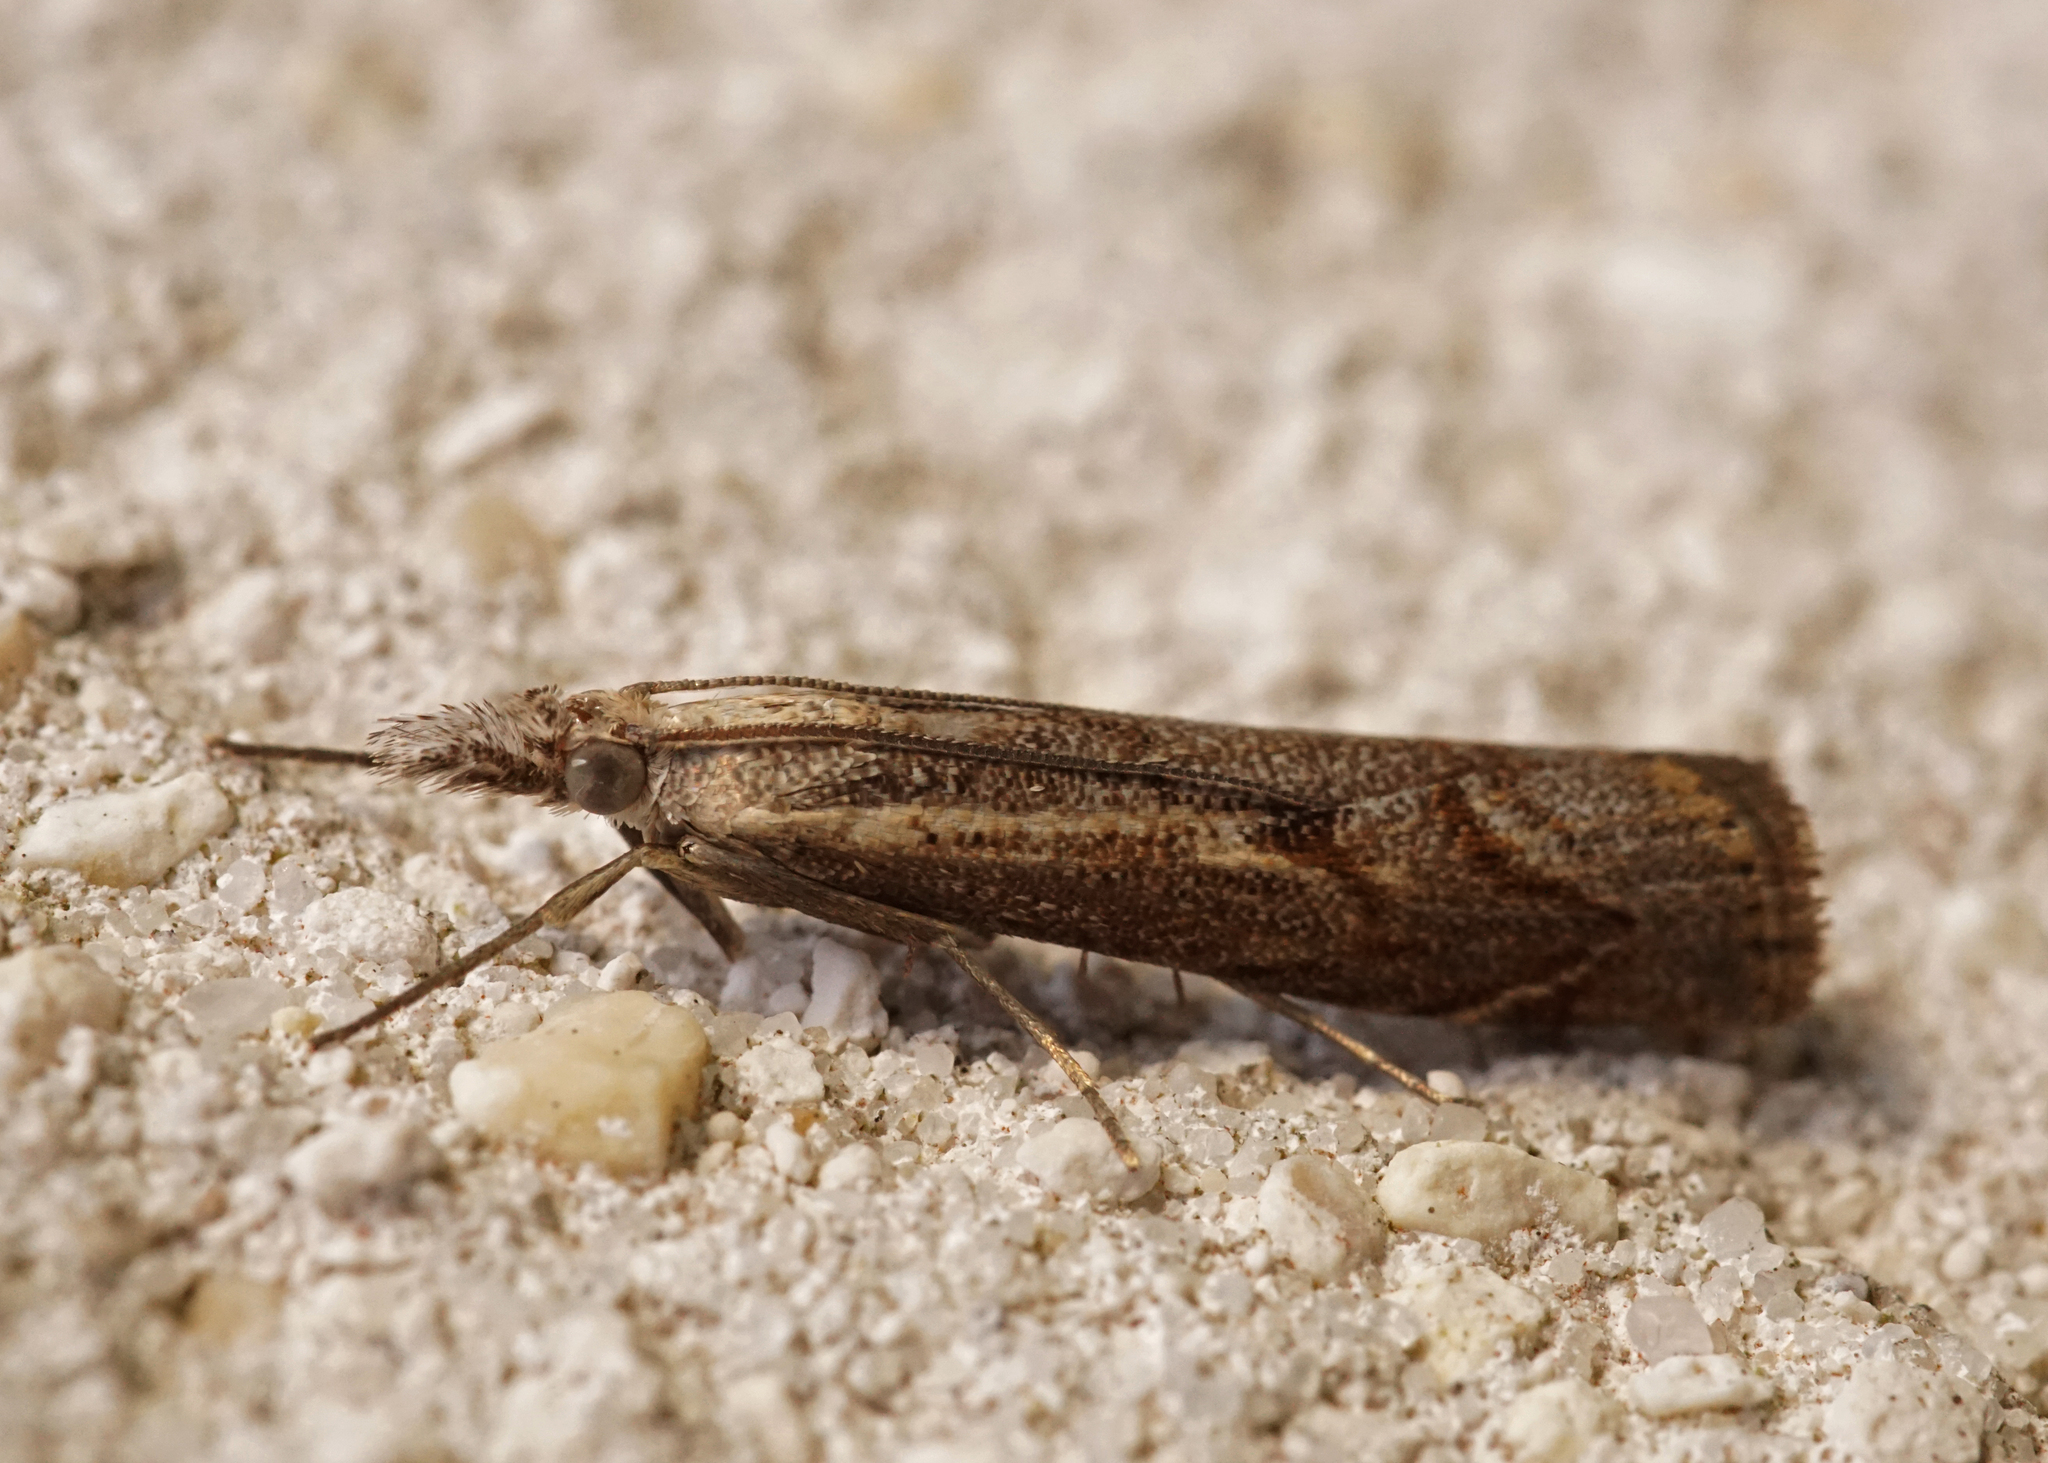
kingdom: Animalia
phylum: Arthropoda
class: Insecta
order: Lepidoptera
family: Crambidae
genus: Agriphila
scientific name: Agriphila geniculea
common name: Elbow-stripe grass-veneer
